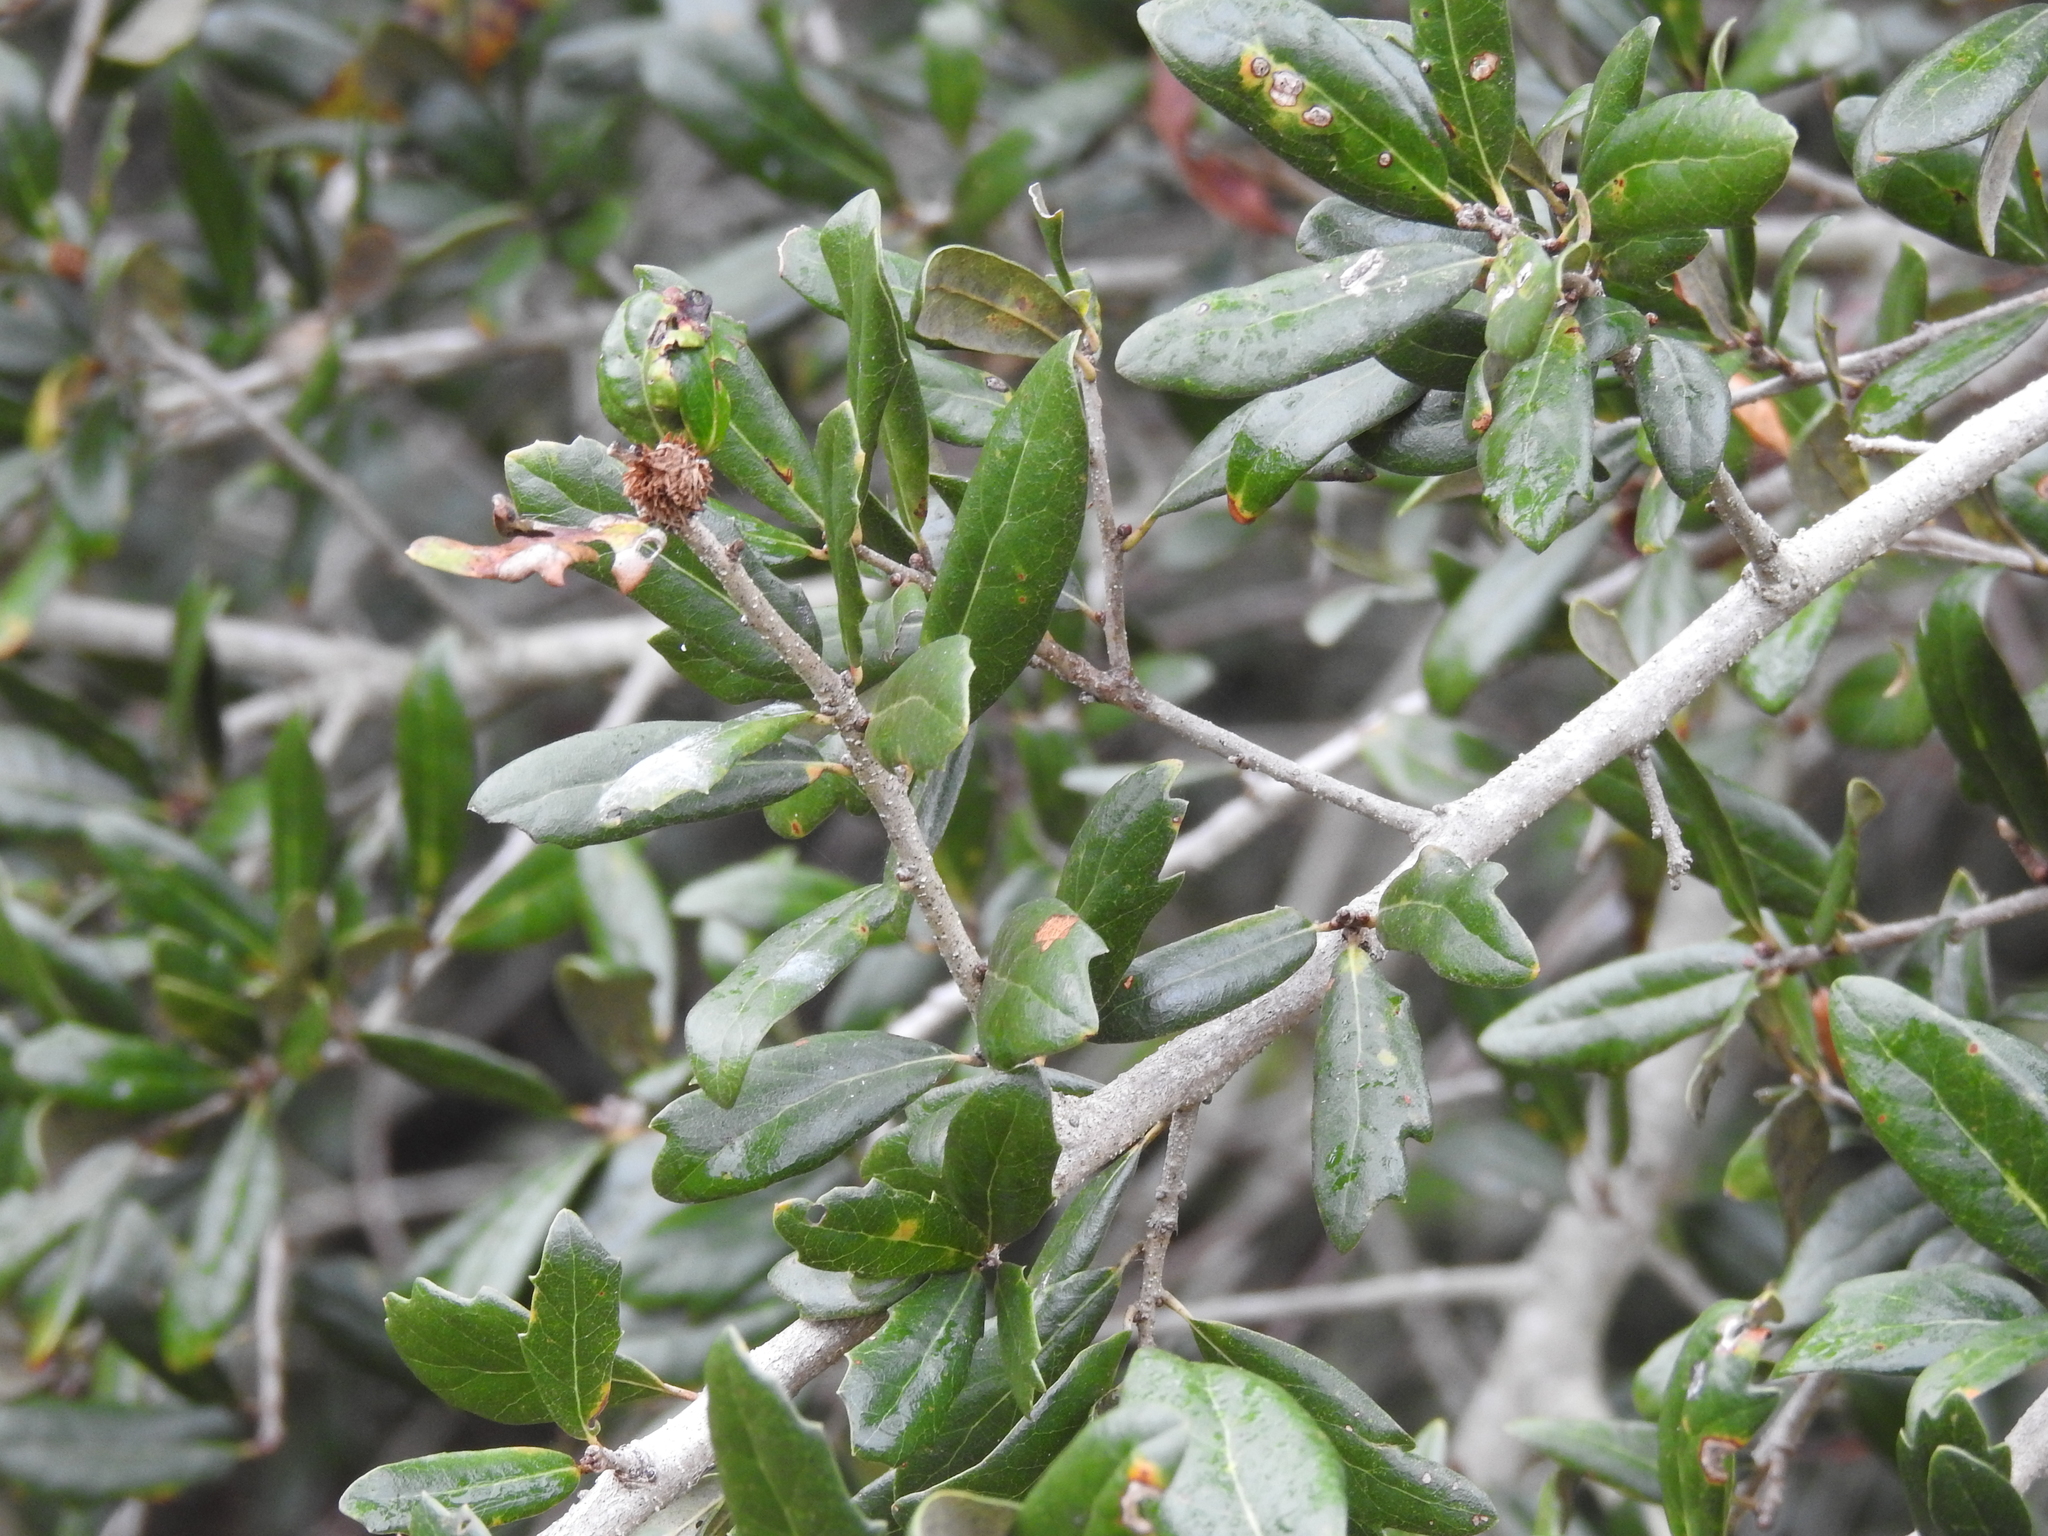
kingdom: Plantae
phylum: Tracheophyta
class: Magnoliopsida
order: Fagales
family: Fagaceae
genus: Quercus
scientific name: Quercus virginiana
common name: Southern live oak
